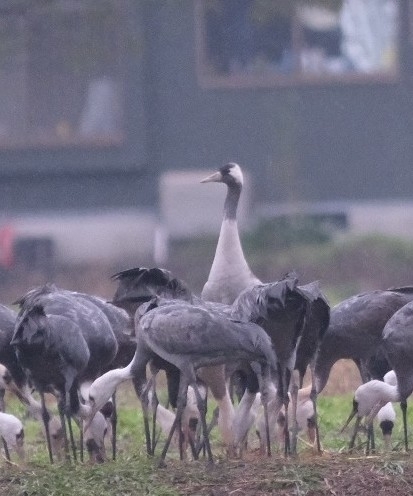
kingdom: Animalia
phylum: Chordata
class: Aves
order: Gruiformes
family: Gruidae
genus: Grus
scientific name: Grus grus
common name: Common crane
